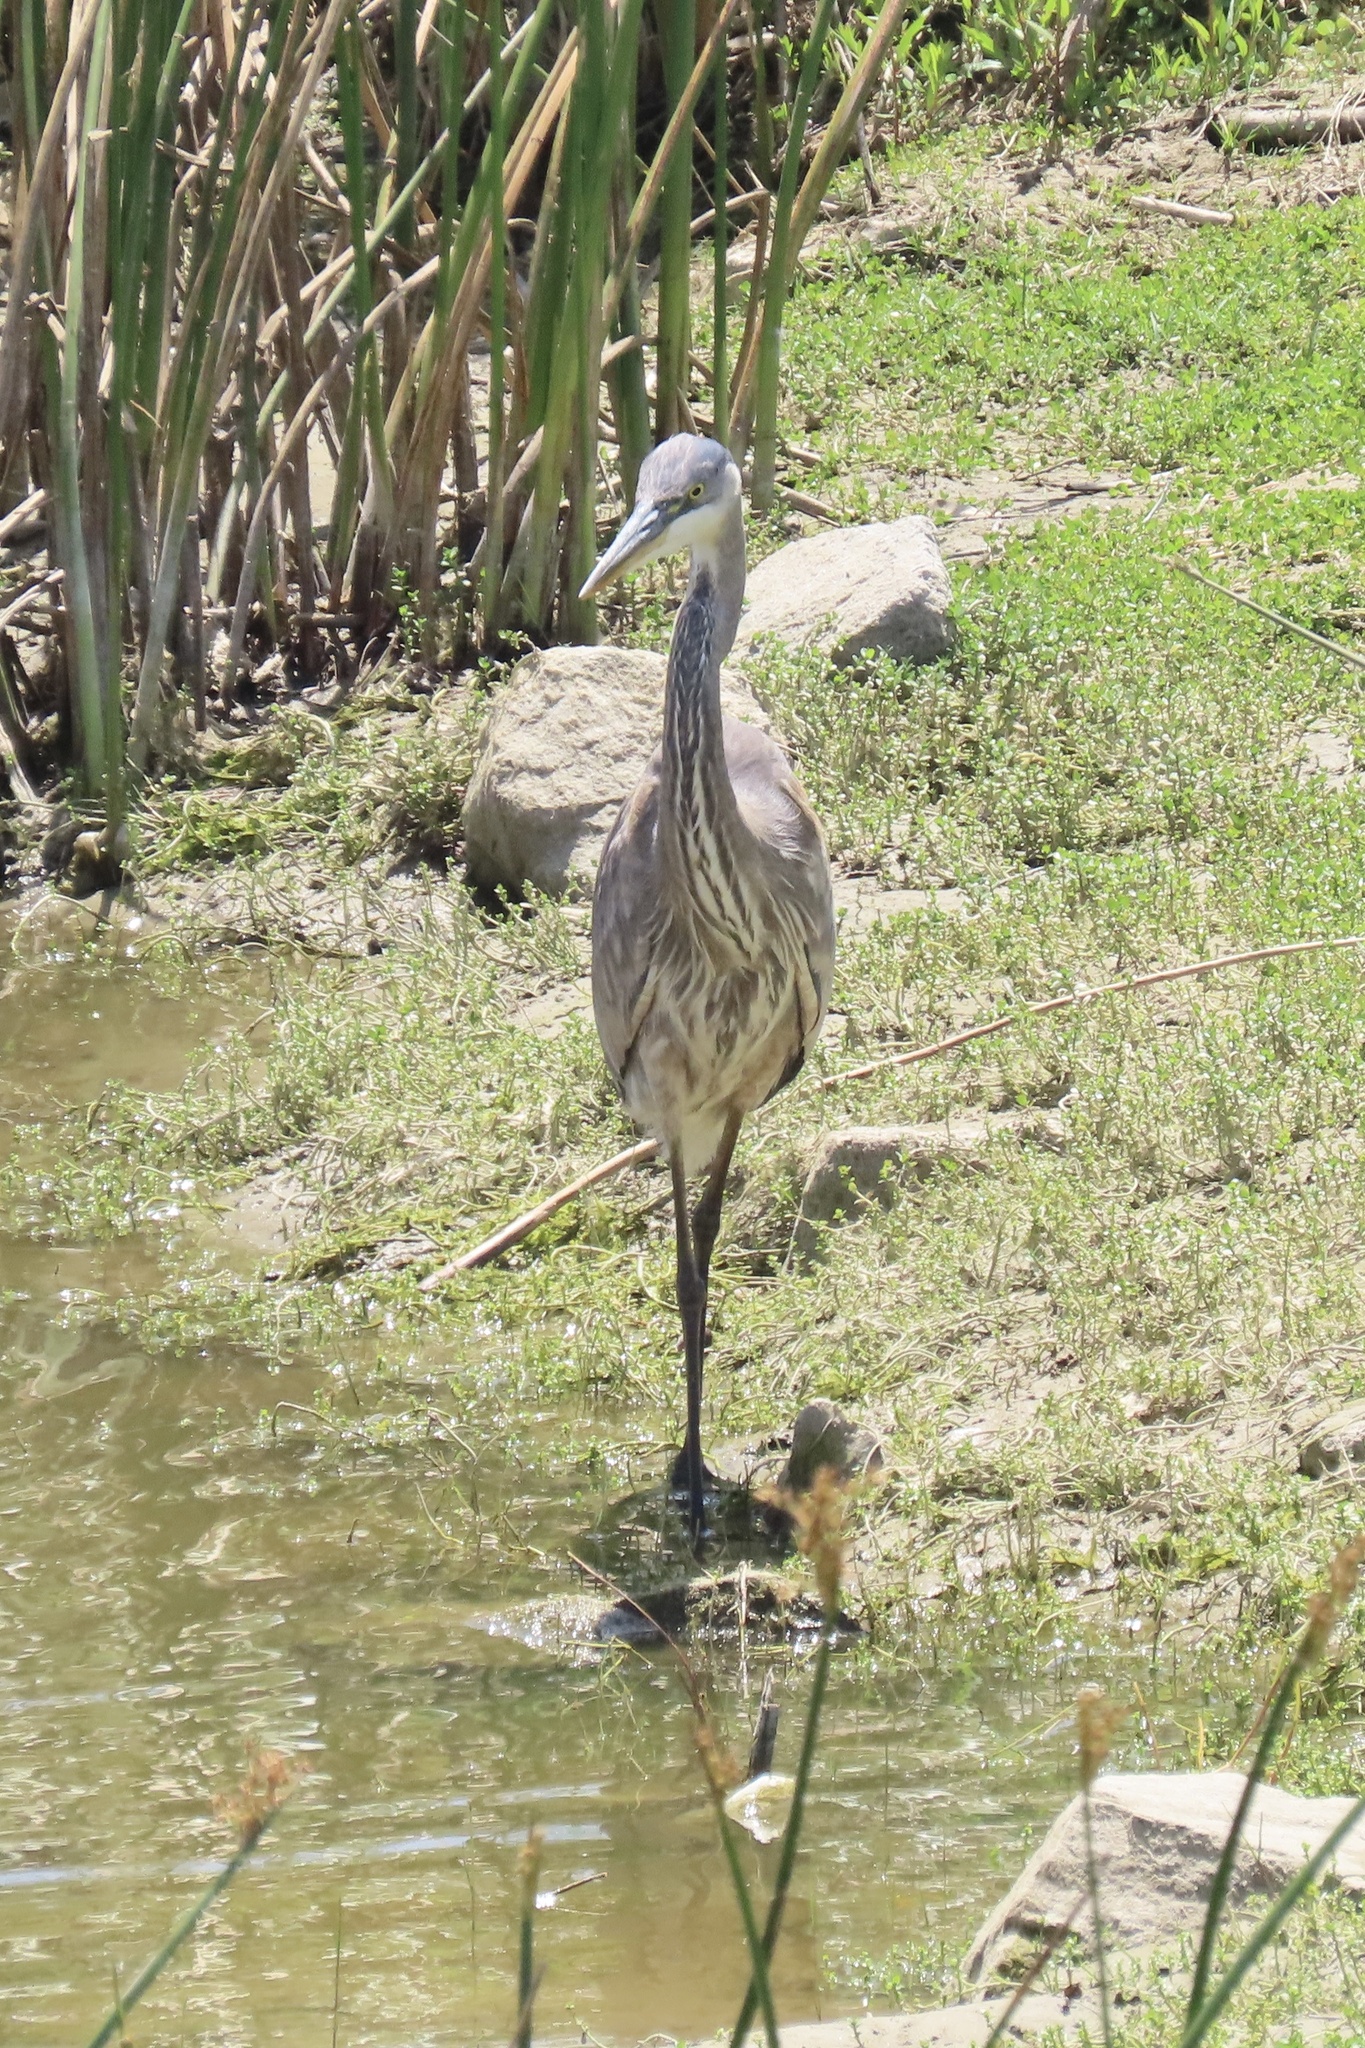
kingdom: Animalia
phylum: Chordata
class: Aves
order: Pelecaniformes
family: Ardeidae
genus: Ardea
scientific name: Ardea herodias
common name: Great blue heron
